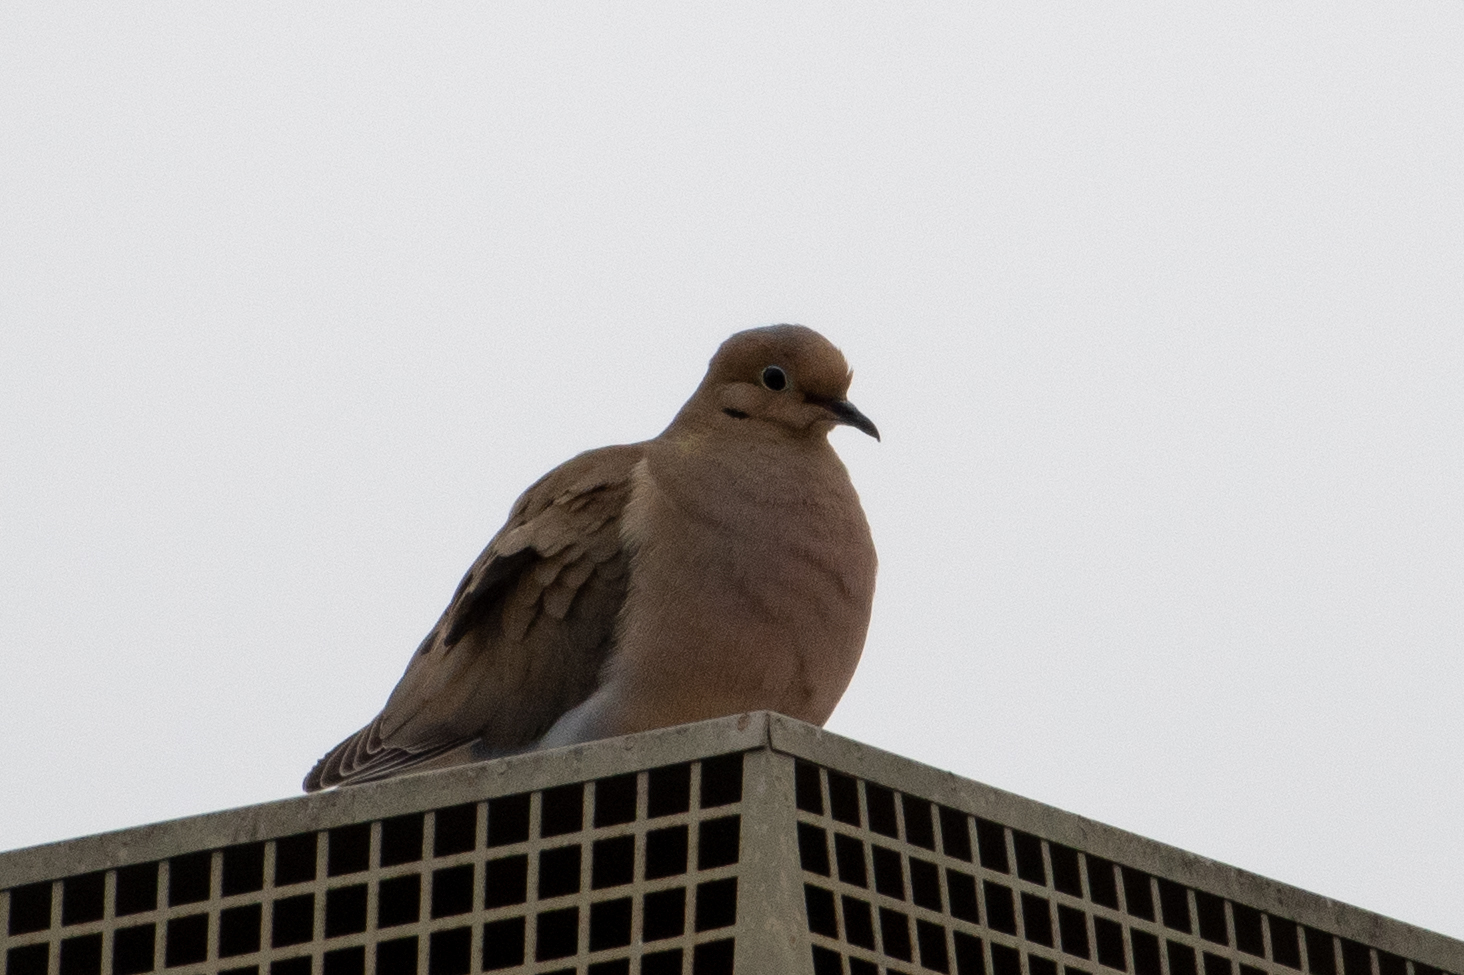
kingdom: Animalia
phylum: Chordata
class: Aves
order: Columbiformes
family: Columbidae
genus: Zenaida
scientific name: Zenaida macroura
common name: Mourning dove
